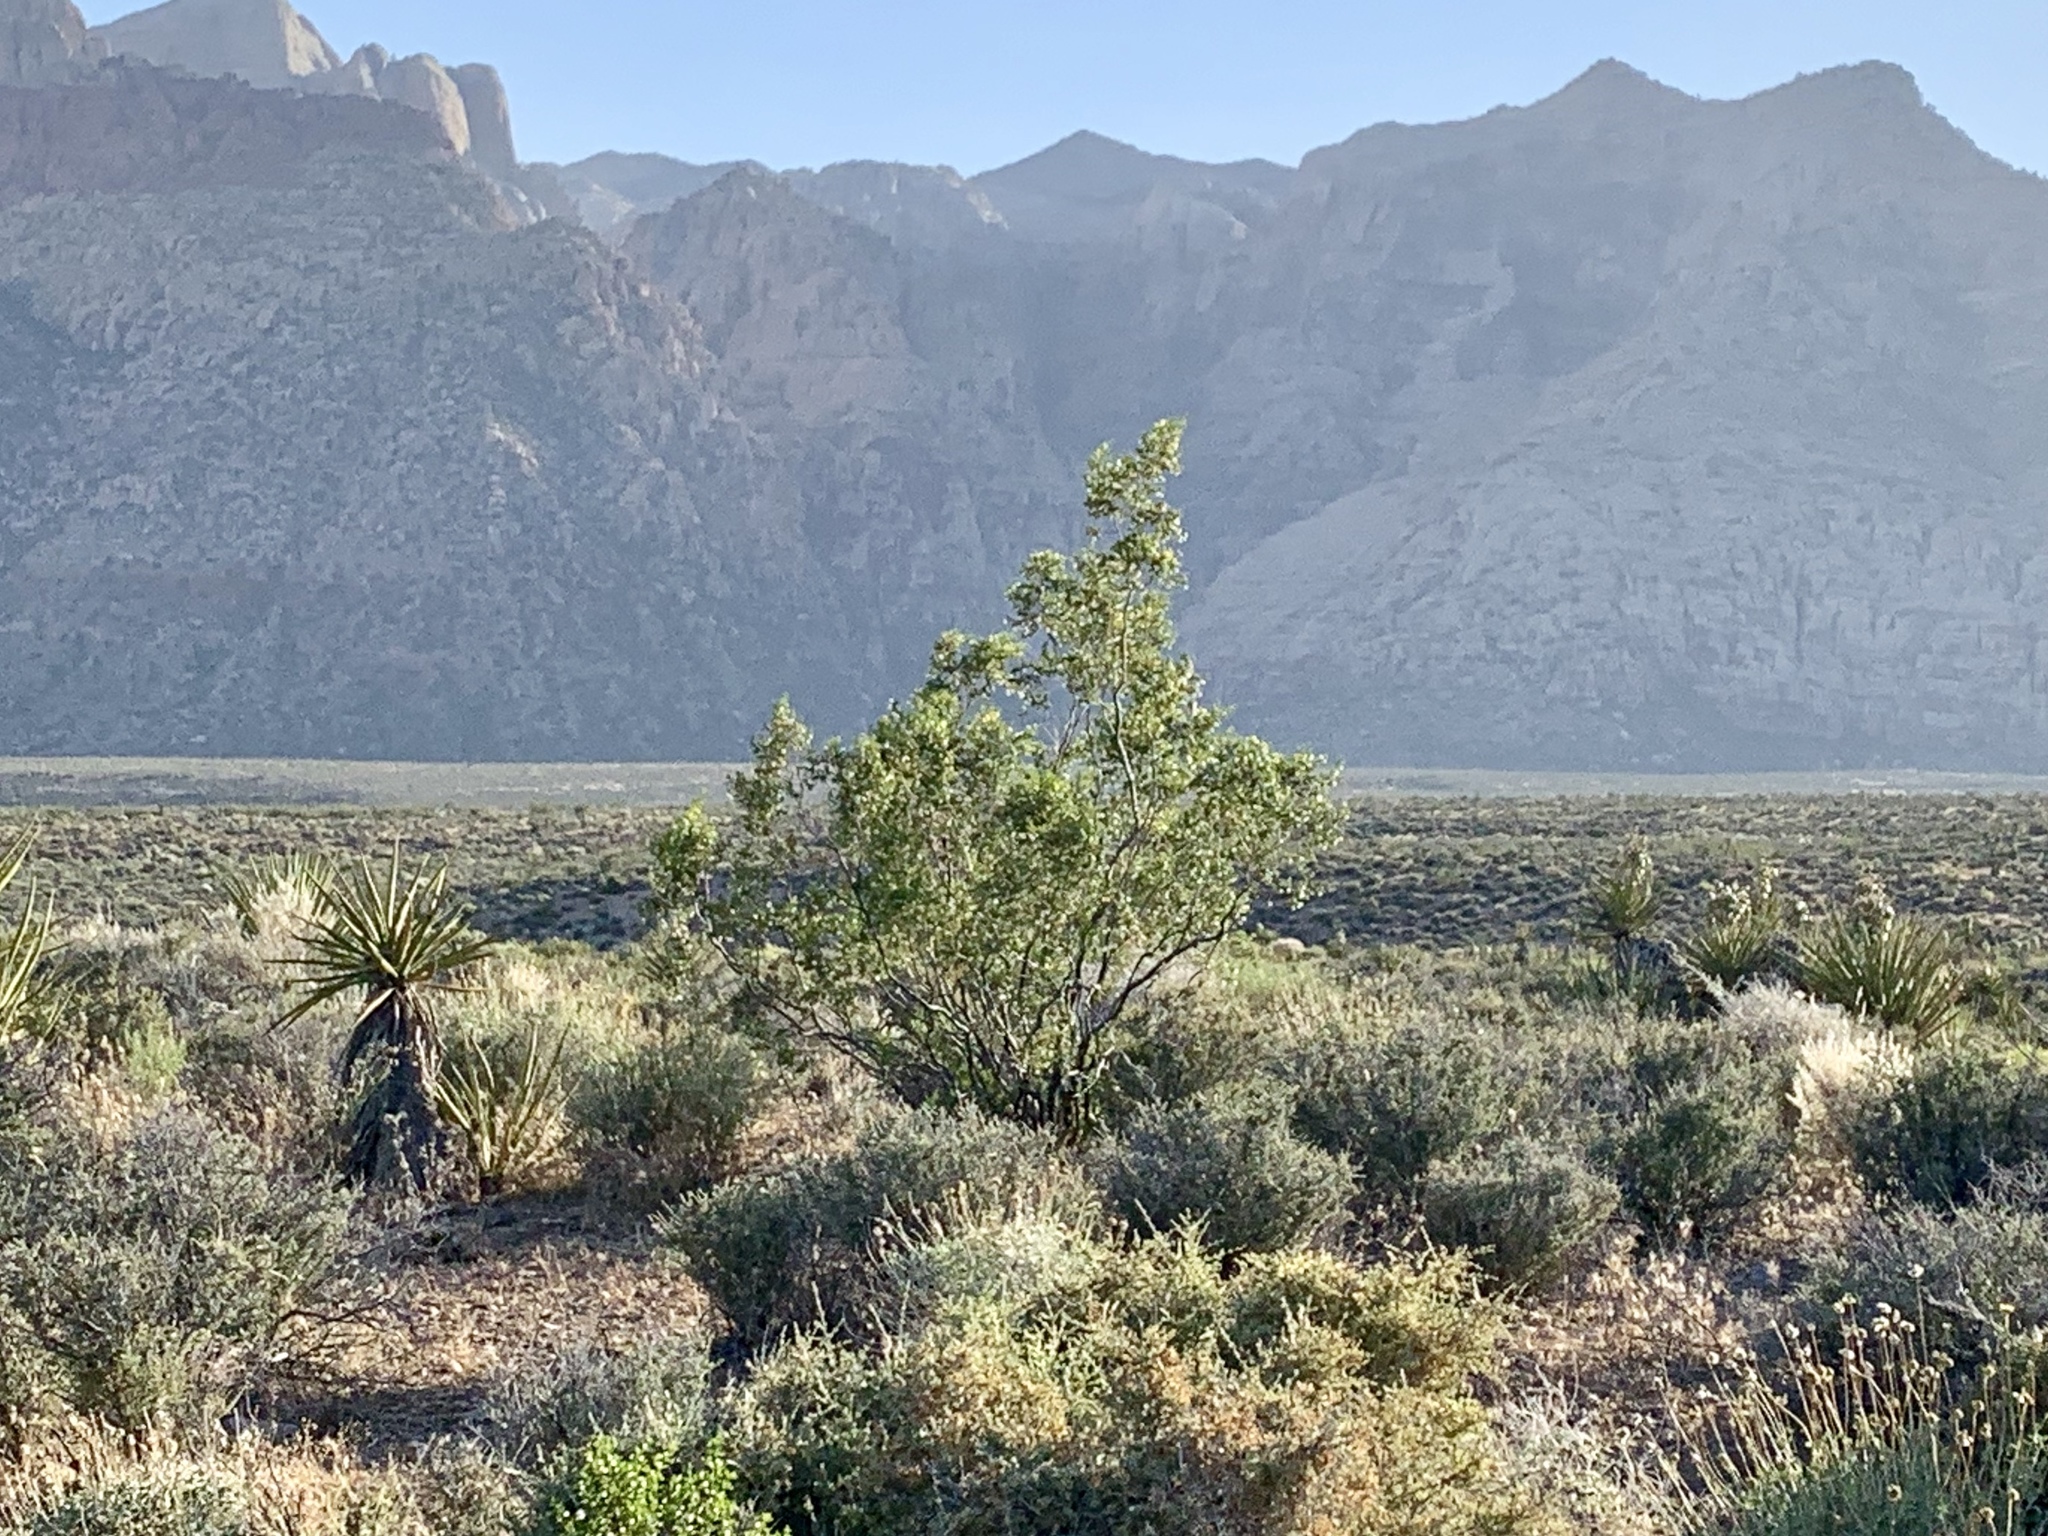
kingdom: Plantae
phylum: Tracheophyta
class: Magnoliopsida
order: Zygophyllales
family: Zygophyllaceae
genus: Larrea
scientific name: Larrea tridentata
